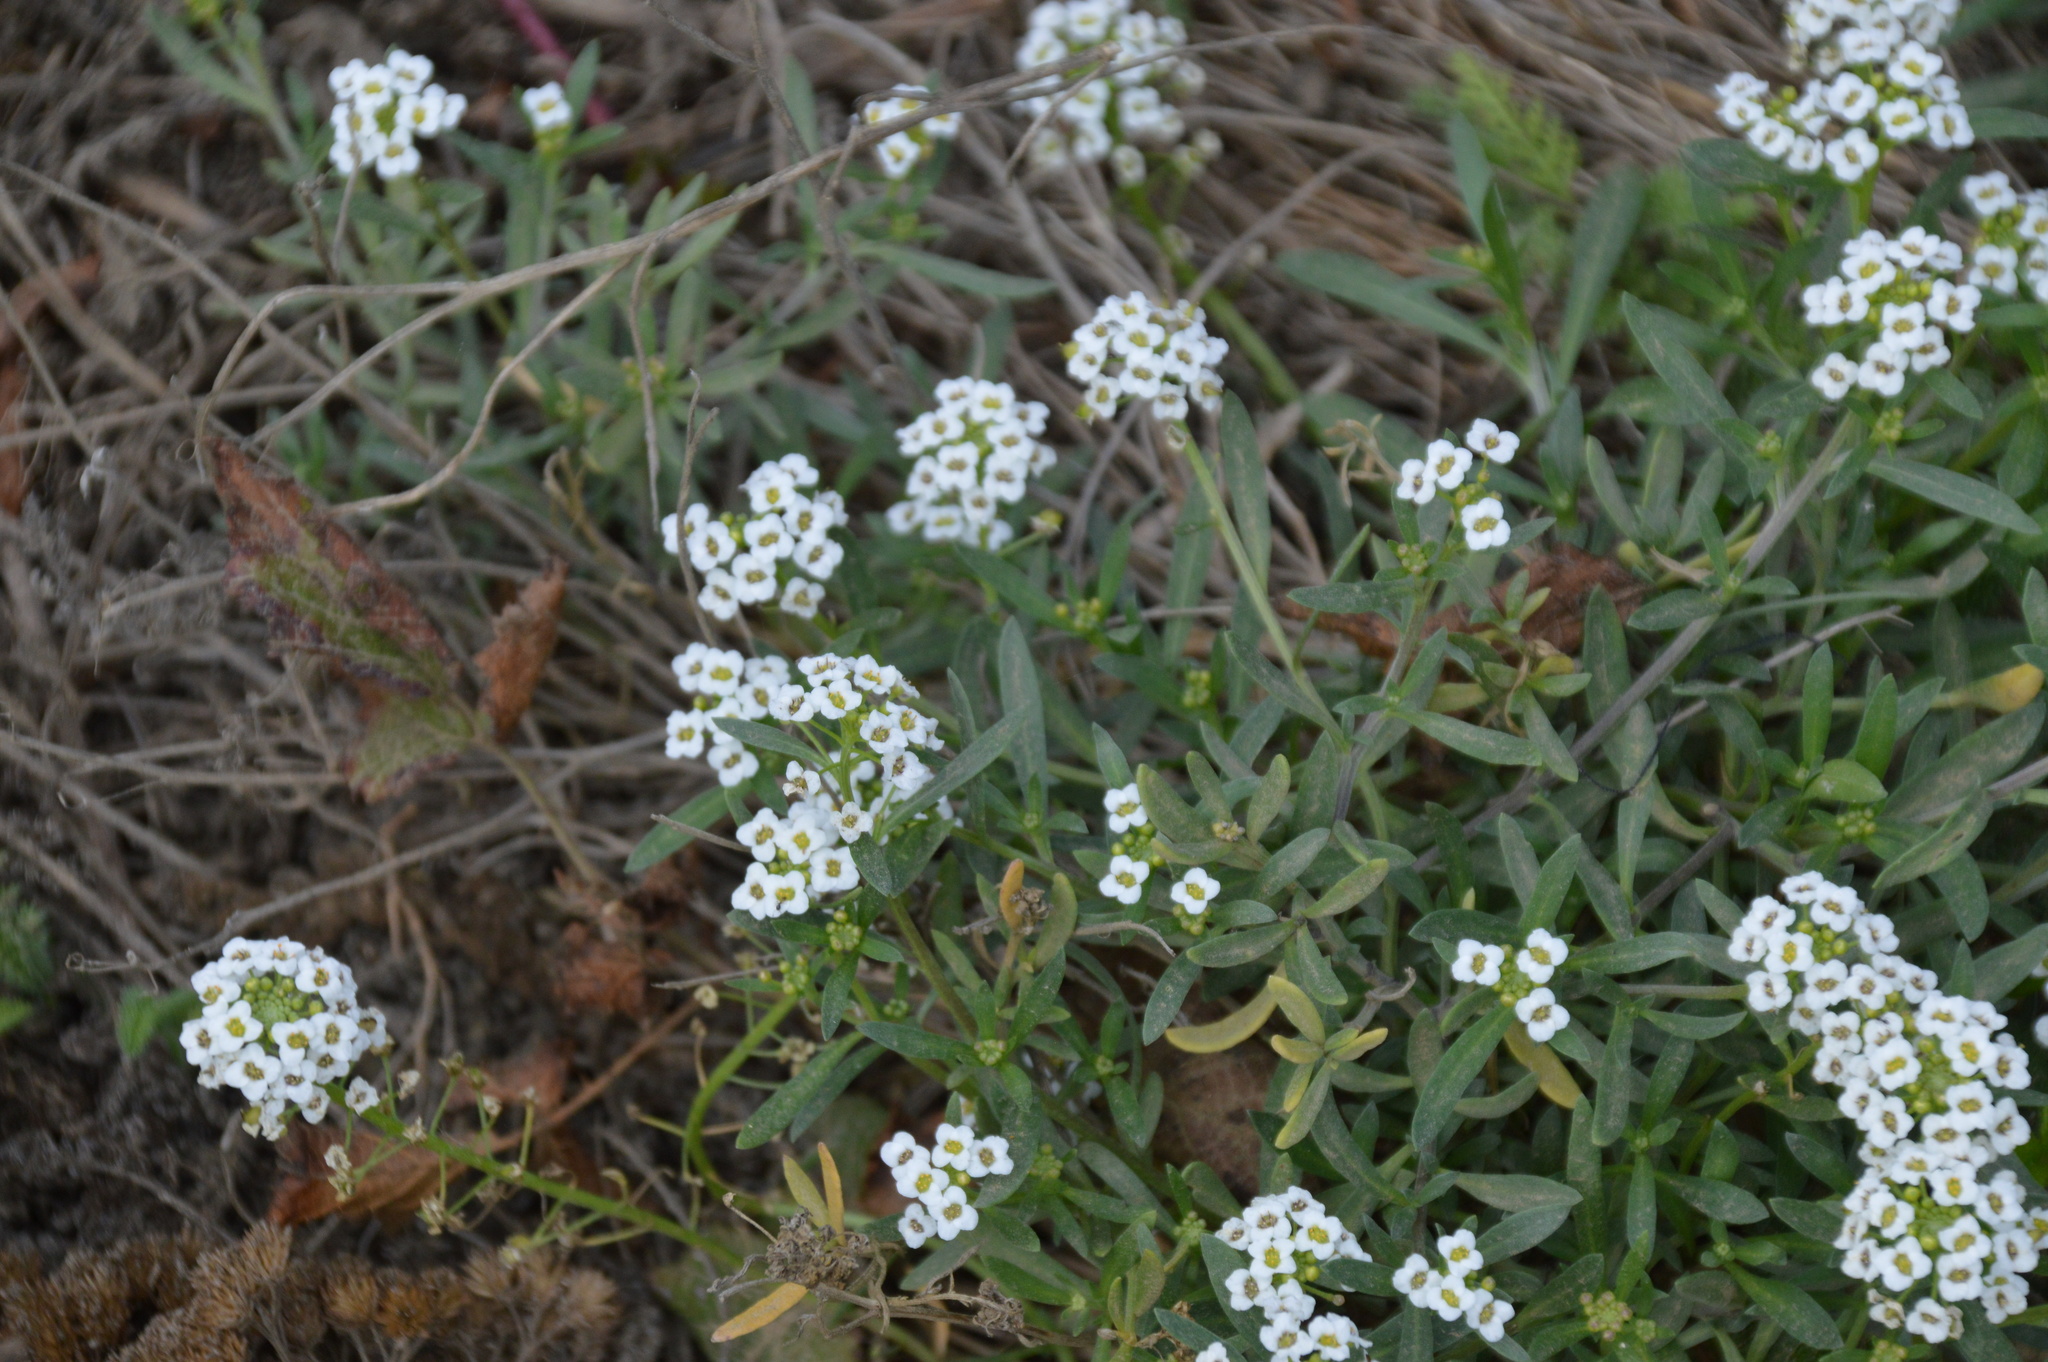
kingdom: Plantae
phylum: Tracheophyta
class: Magnoliopsida
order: Brassicales
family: Brassicaceae
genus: Lobularia
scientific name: Lobularia maritima
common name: Sweet alison
